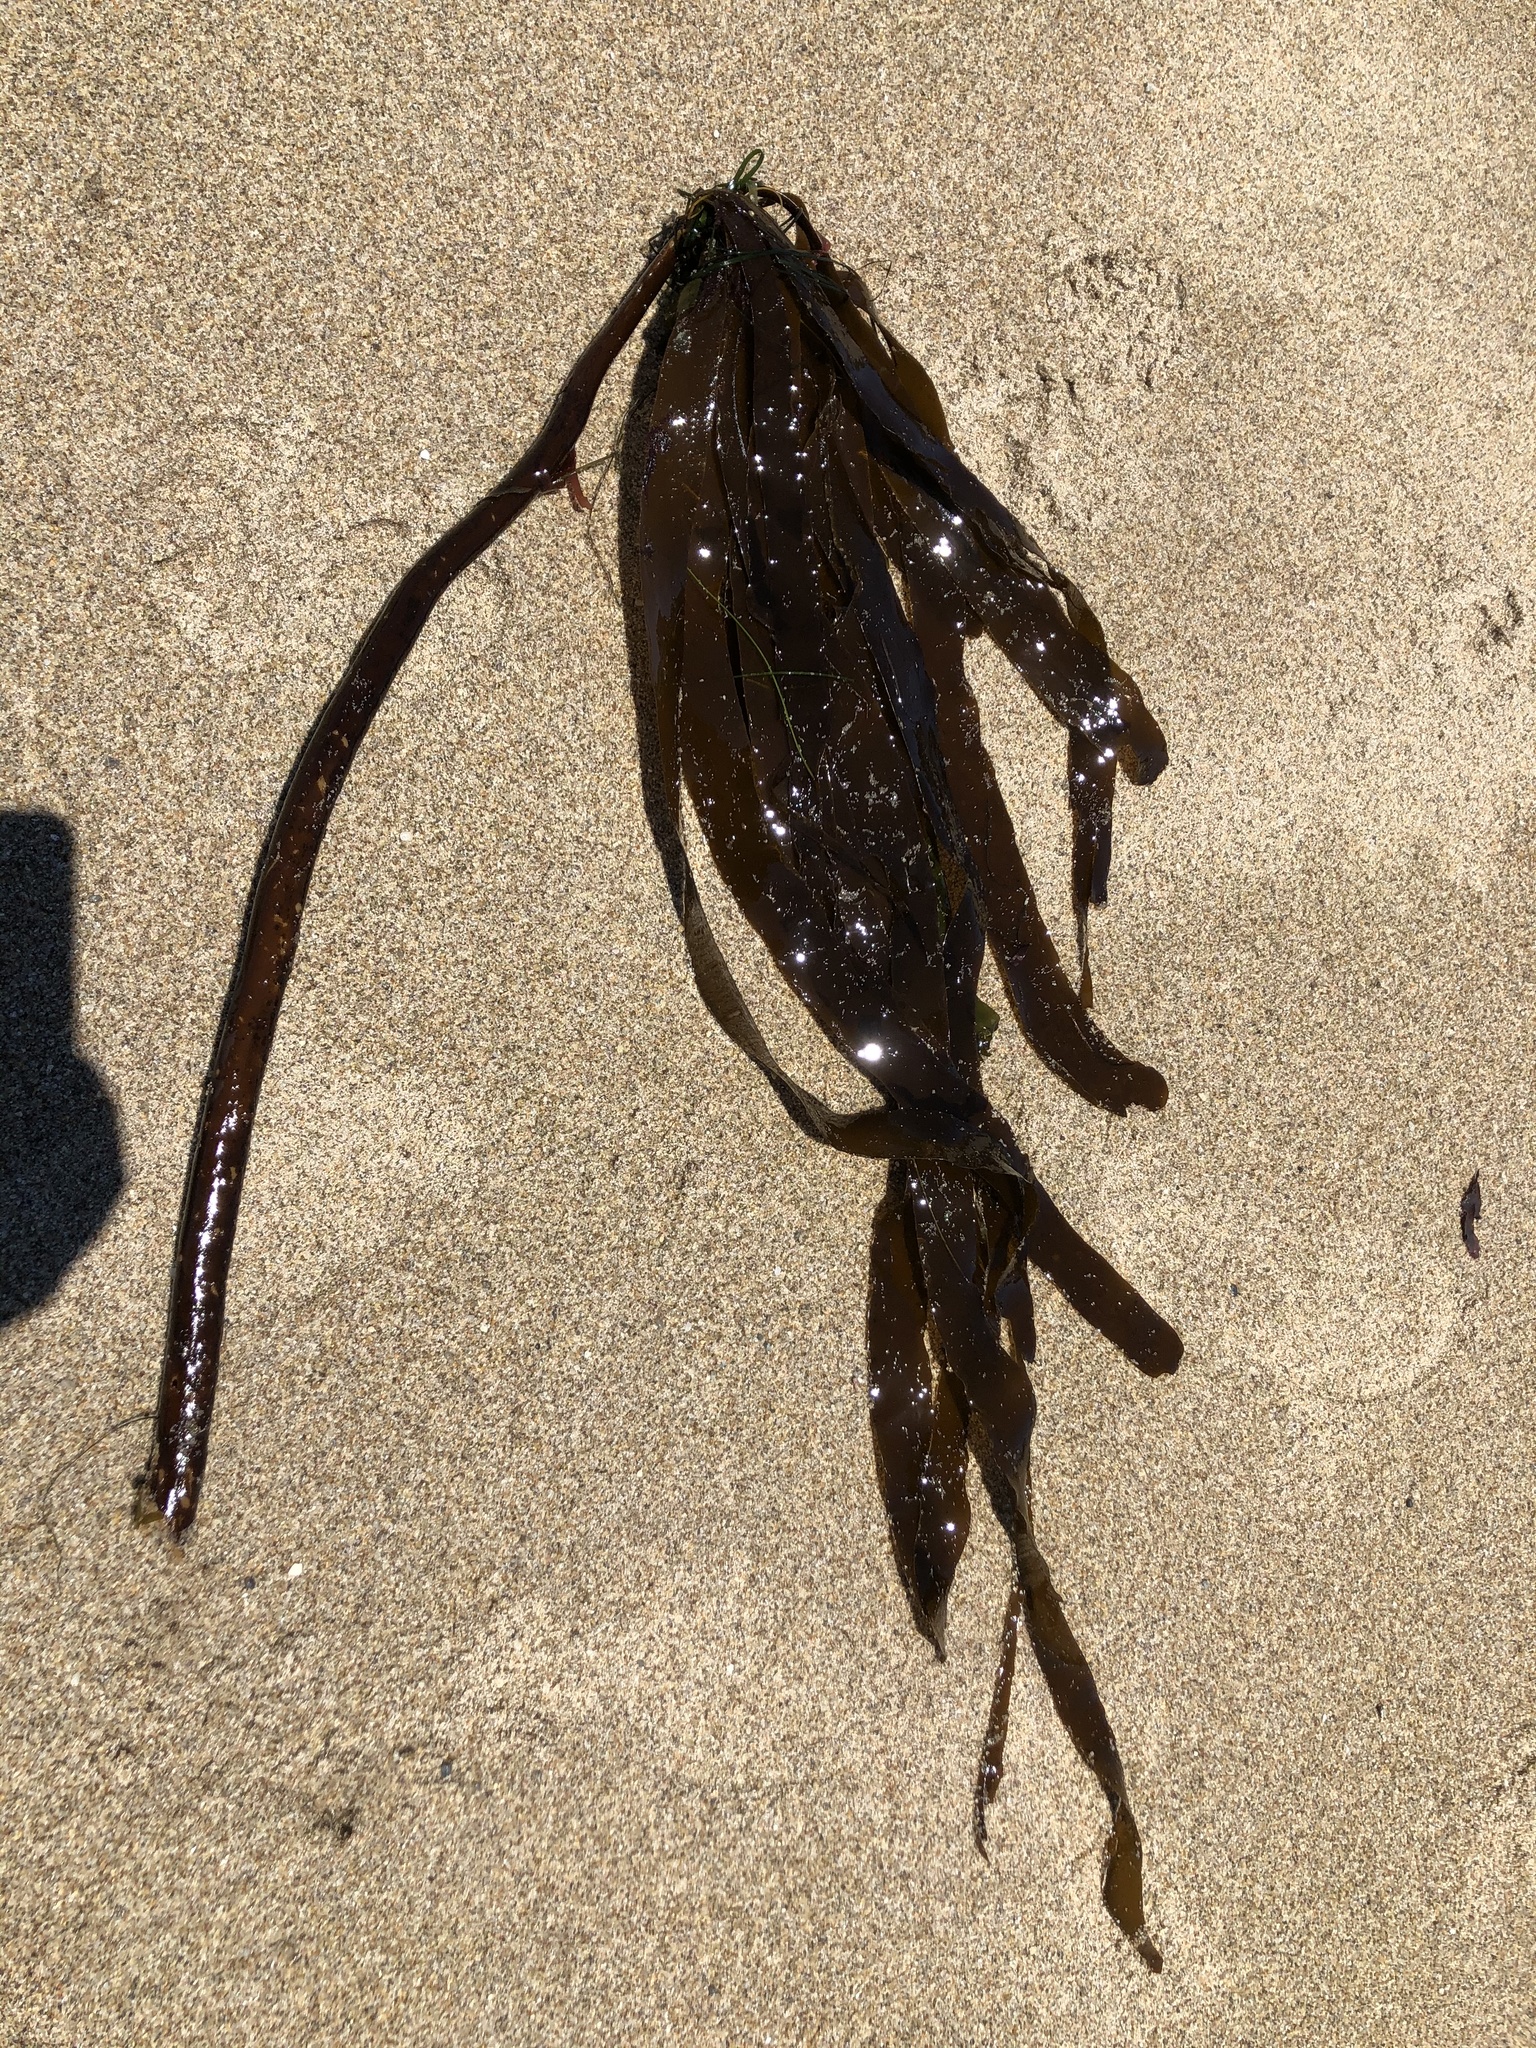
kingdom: Chromista
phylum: Ochrophyta
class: Phaeophyceae
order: Laminariales
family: Alariaceae
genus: Pterygophora
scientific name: Pterygophora californica
